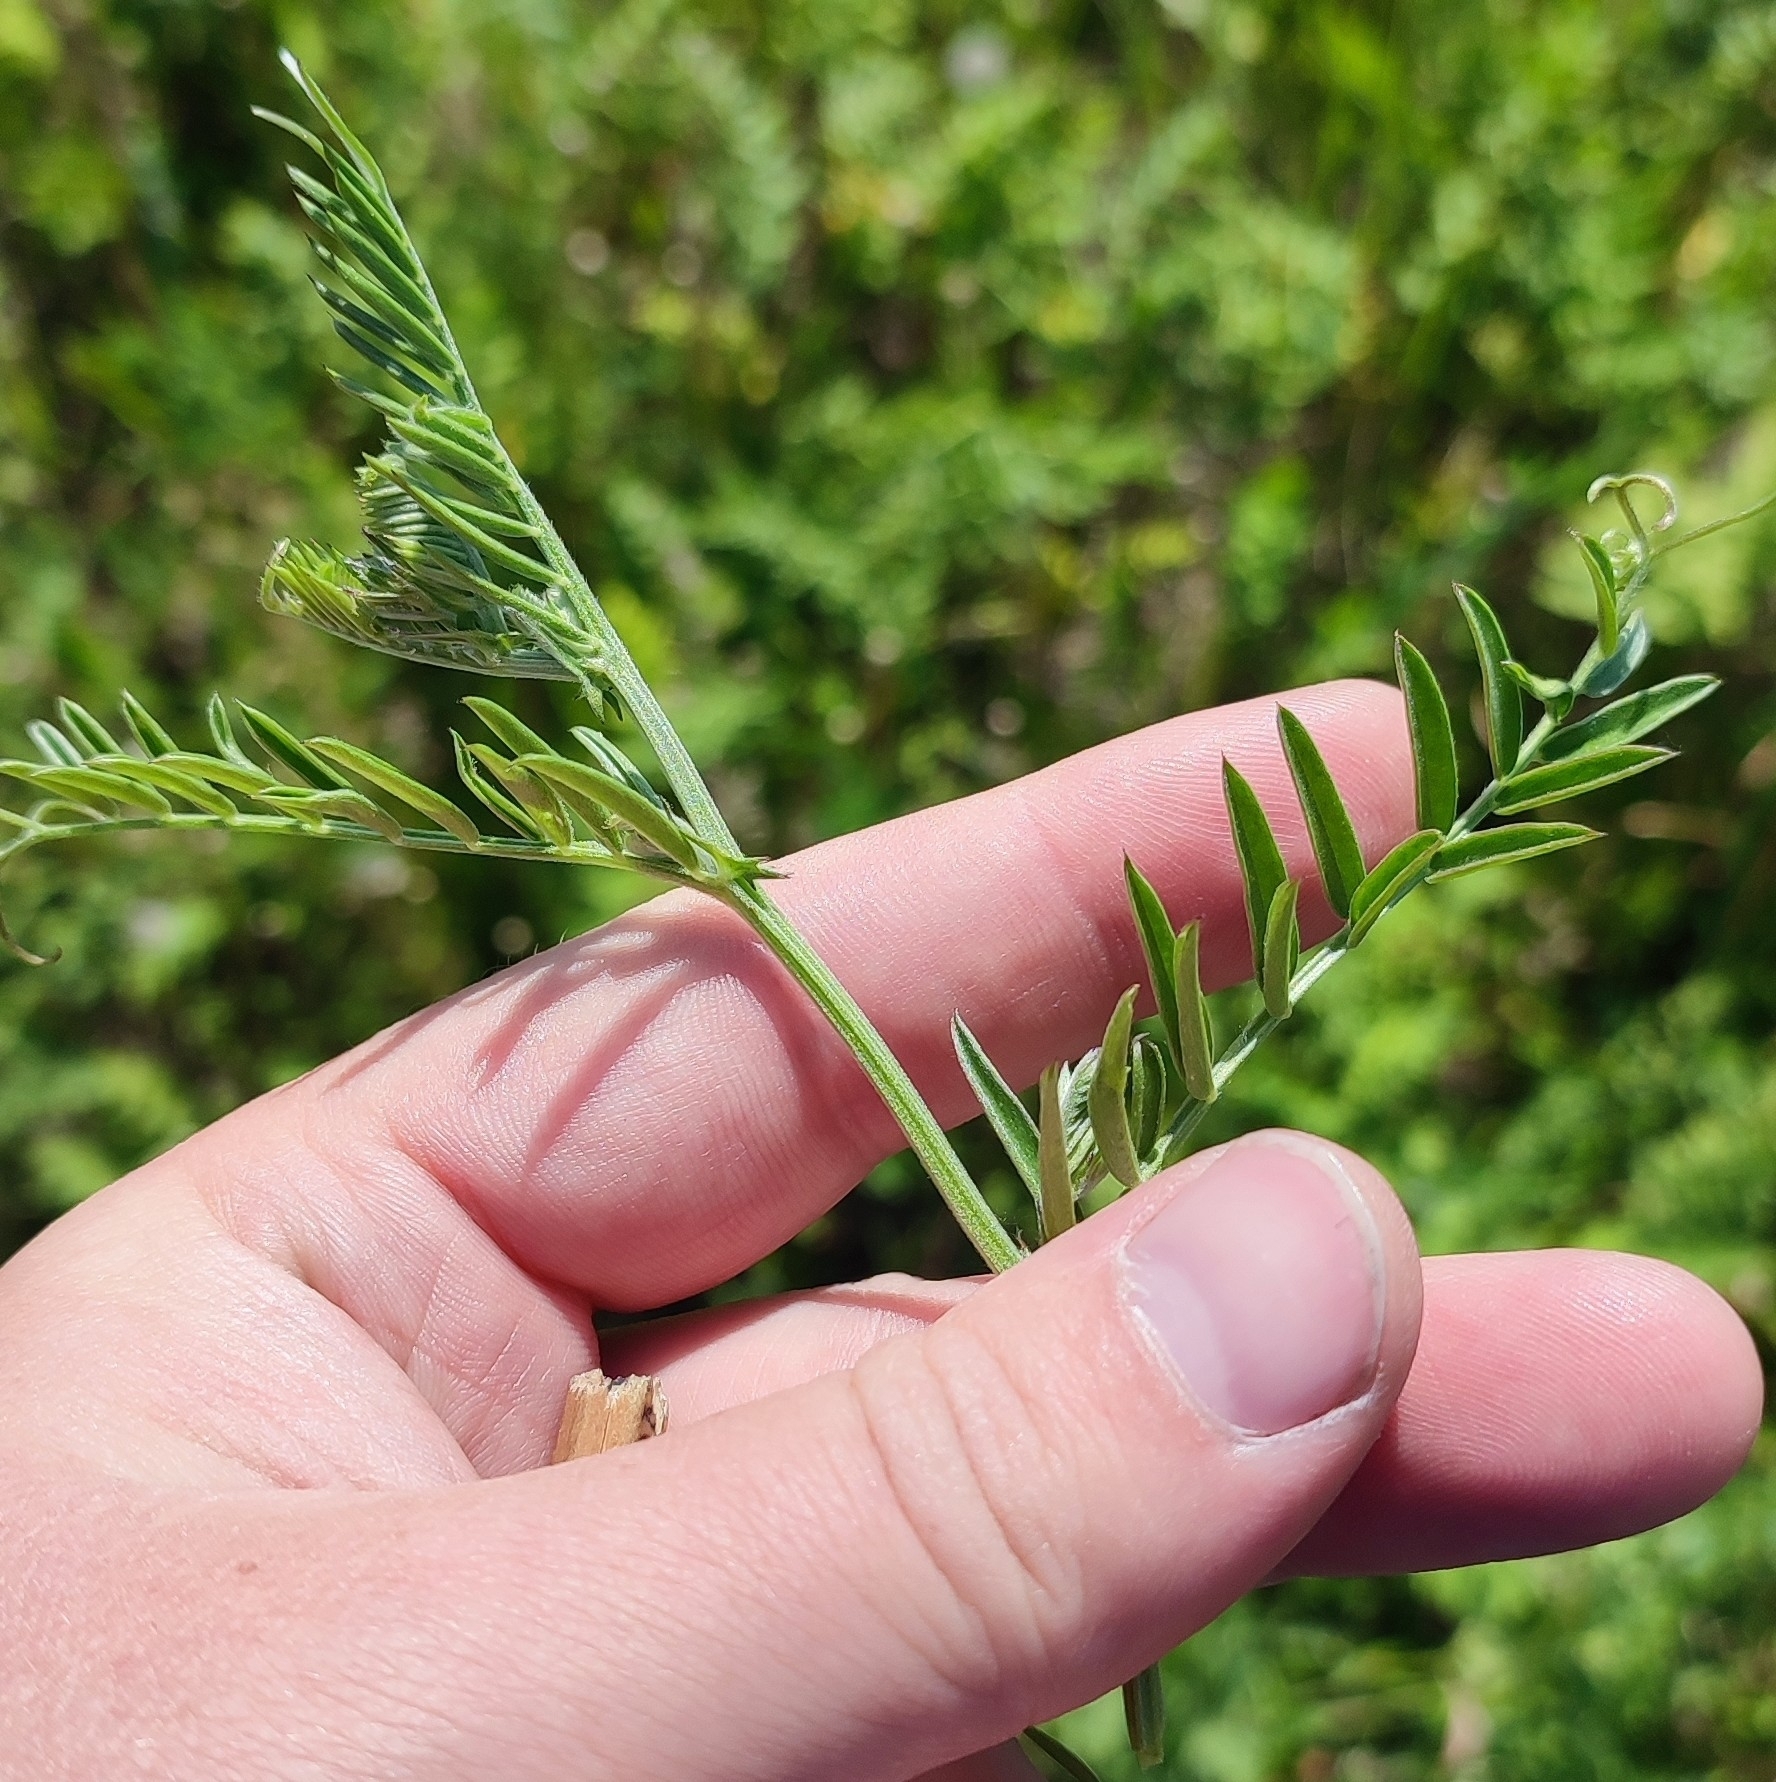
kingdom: Plantae
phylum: Tracheophyta
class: Magnoliopsida
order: Fabales
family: Fabaceae
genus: Vicia
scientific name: Vicia cracca
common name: Bird vetch
